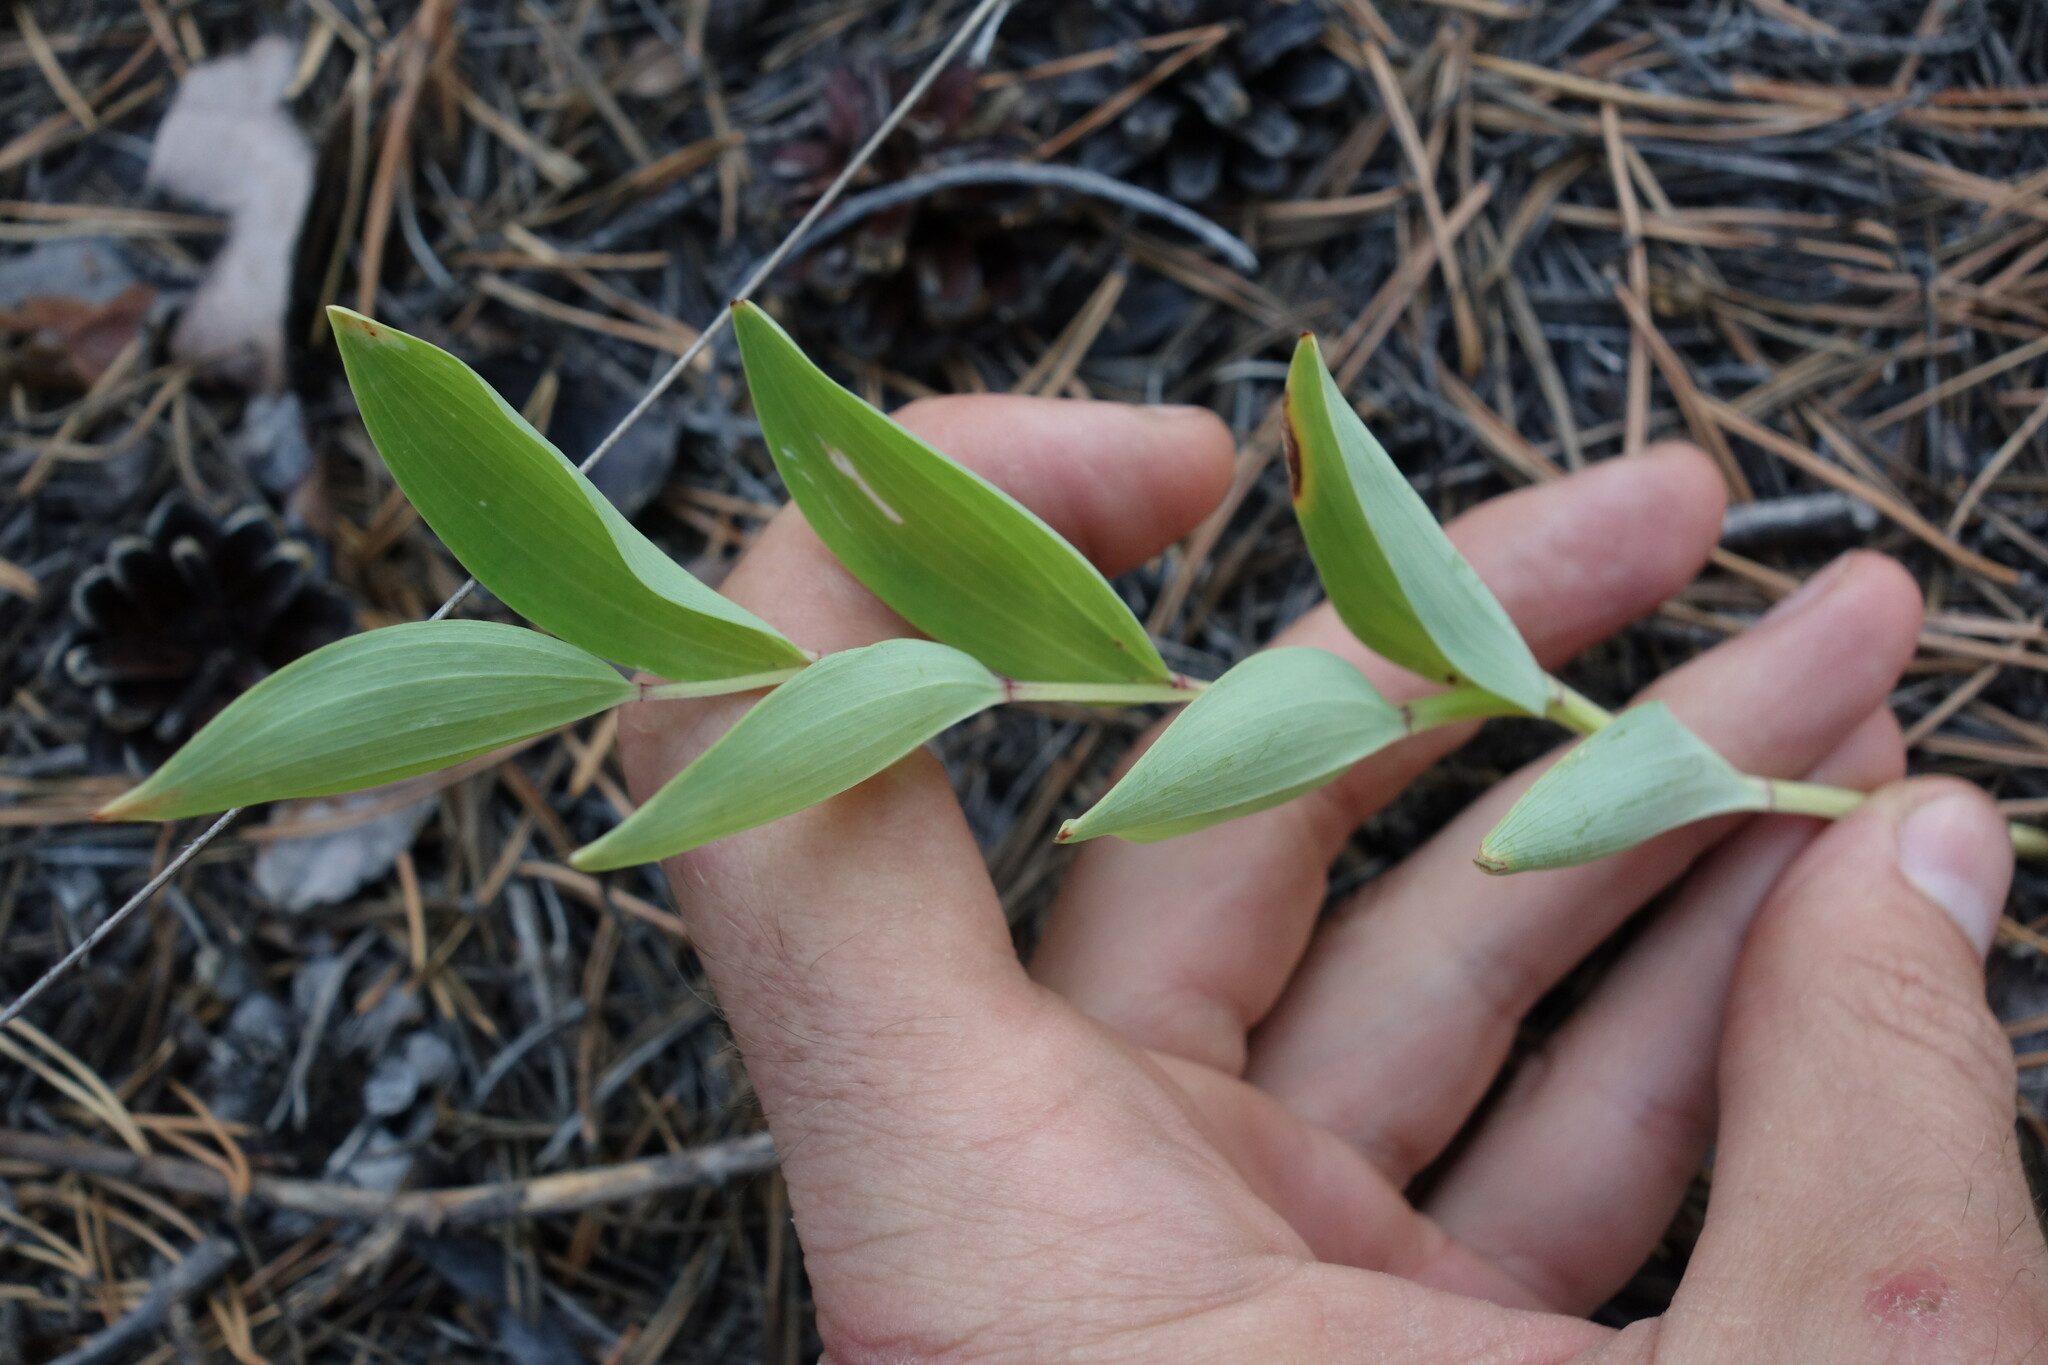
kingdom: Plantae
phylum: Tracheophyta
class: Liliopsida
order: Asparagales
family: Asparagaceae
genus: Polygonatum
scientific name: Polygonatum odoratum
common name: Angular solomon's-seal
